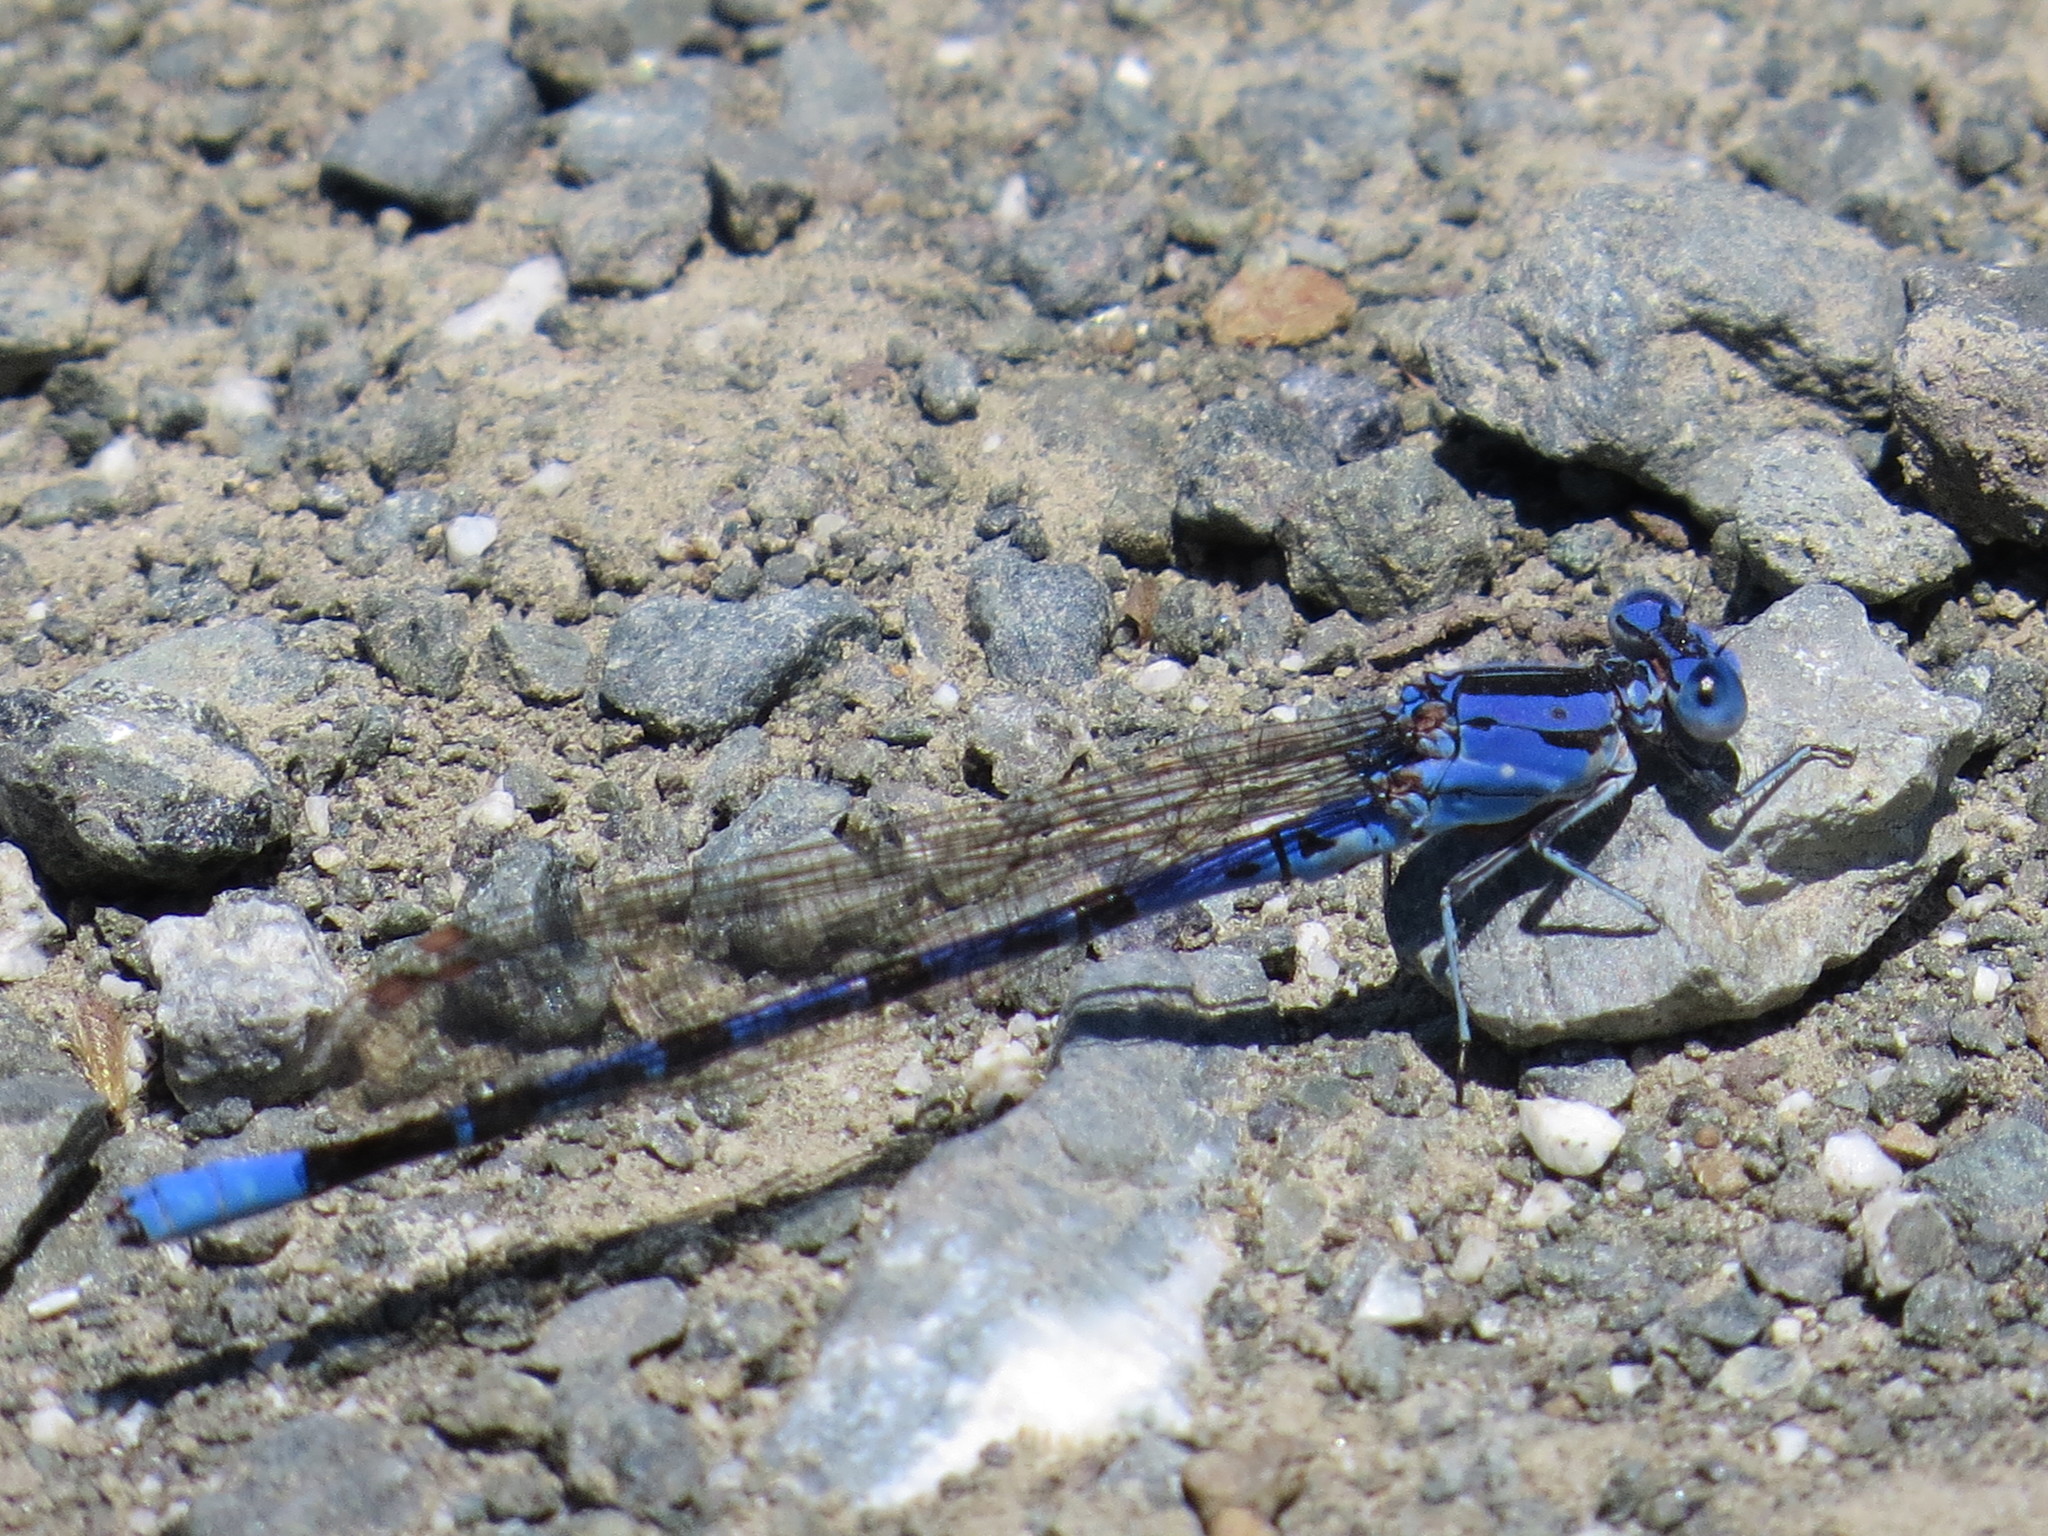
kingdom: Animalia
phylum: Arthropoda
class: Insecta
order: Odonata
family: Coenagrionidae
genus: Argia
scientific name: Argia vivida
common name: Vivid dancer
